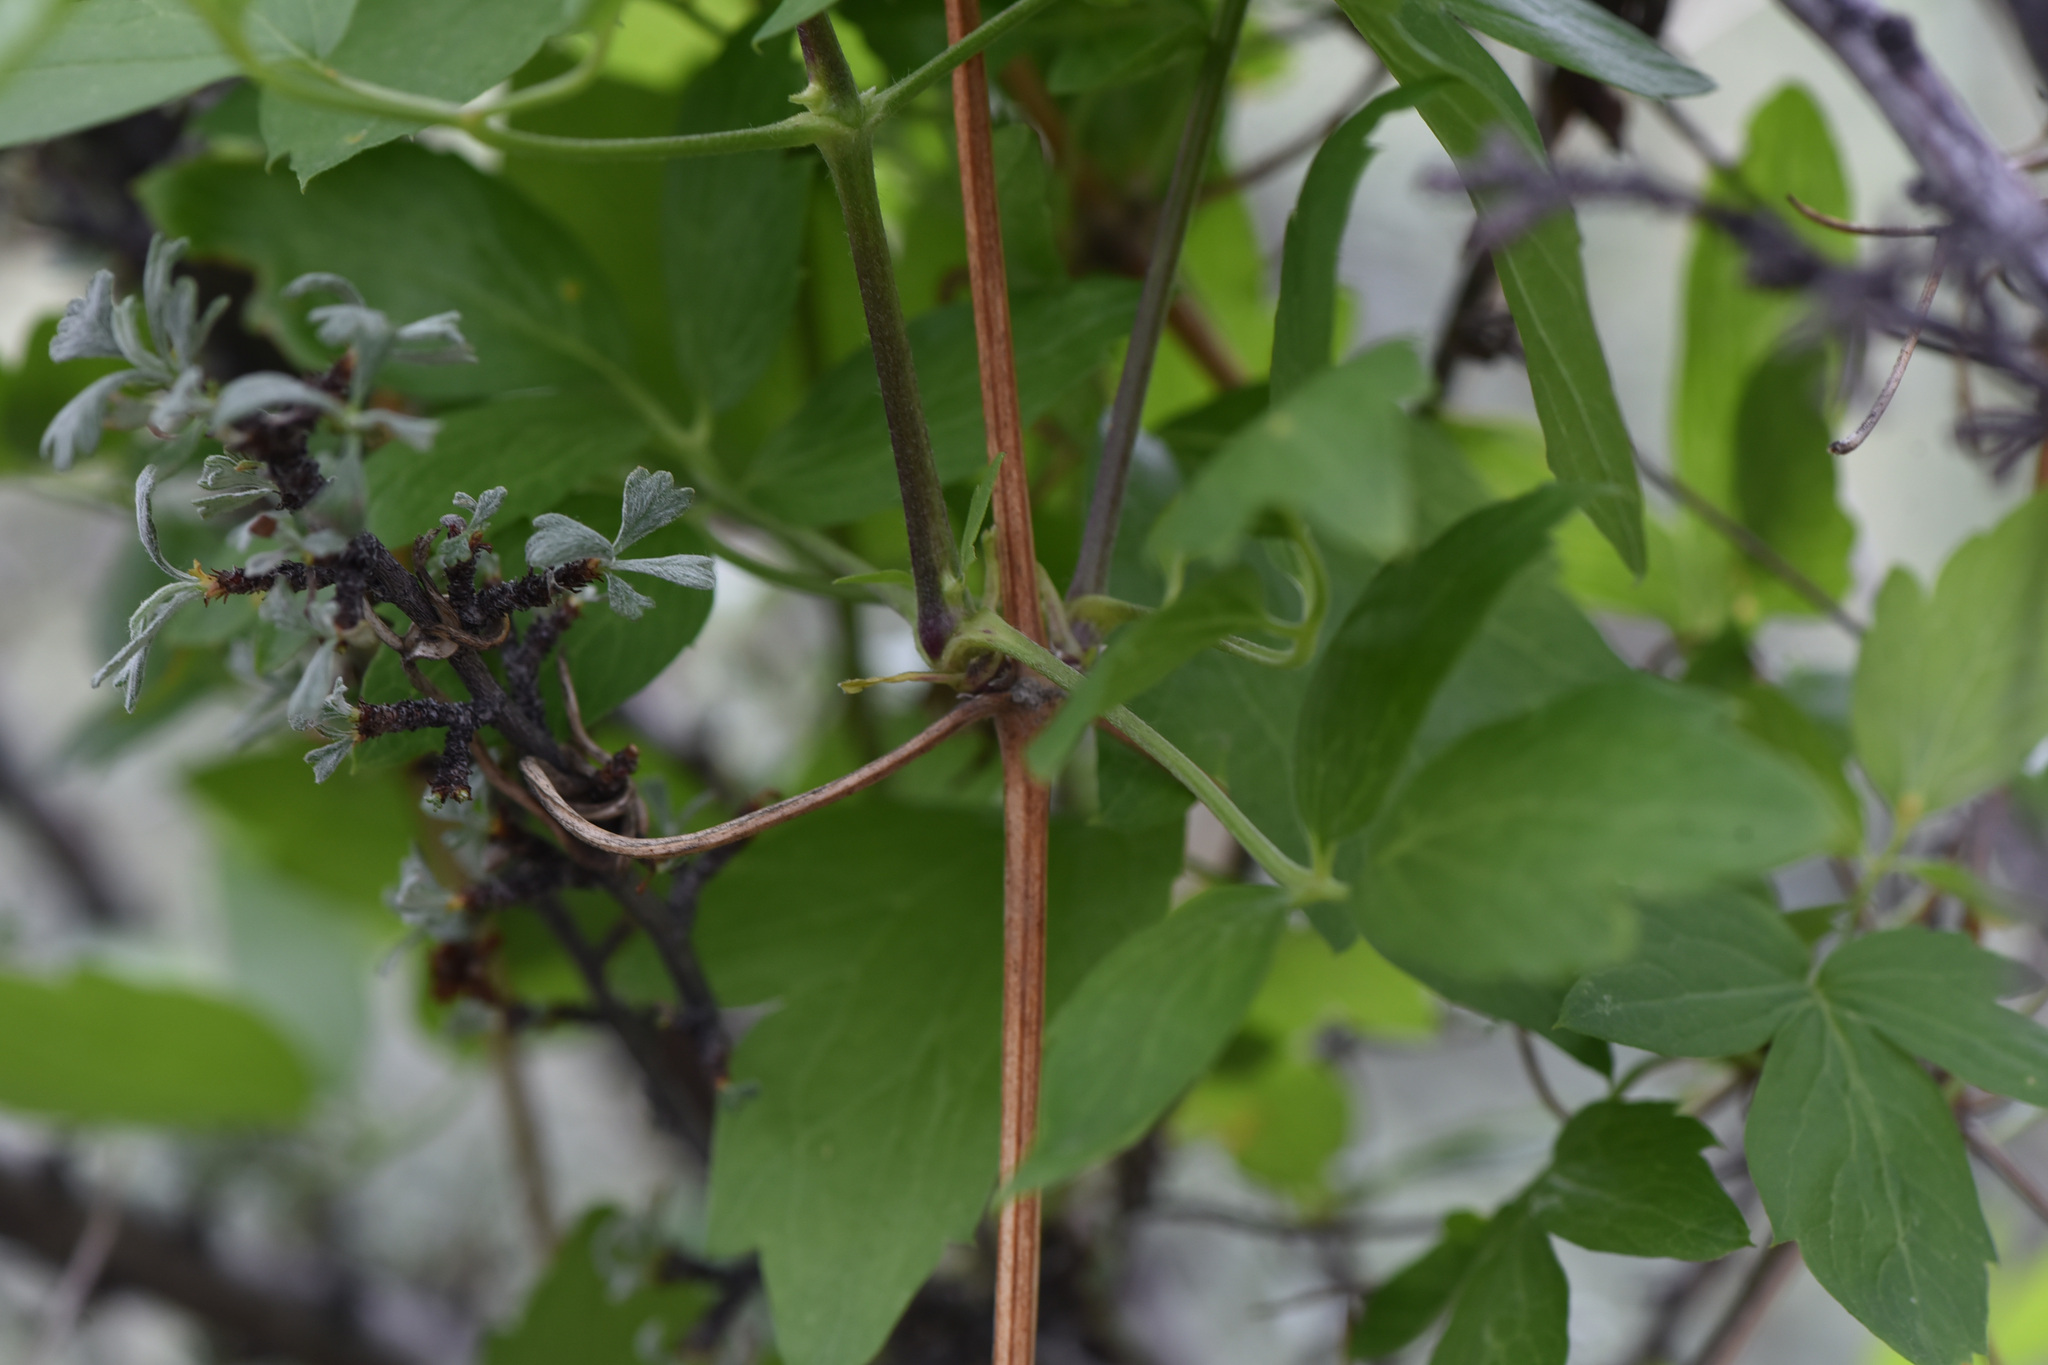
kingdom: Plantae
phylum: Tracheophyta
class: Magnoliopsida
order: Ranunculales
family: Ranunculaceae
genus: Clematis
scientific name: Clematis ligusticifolia
